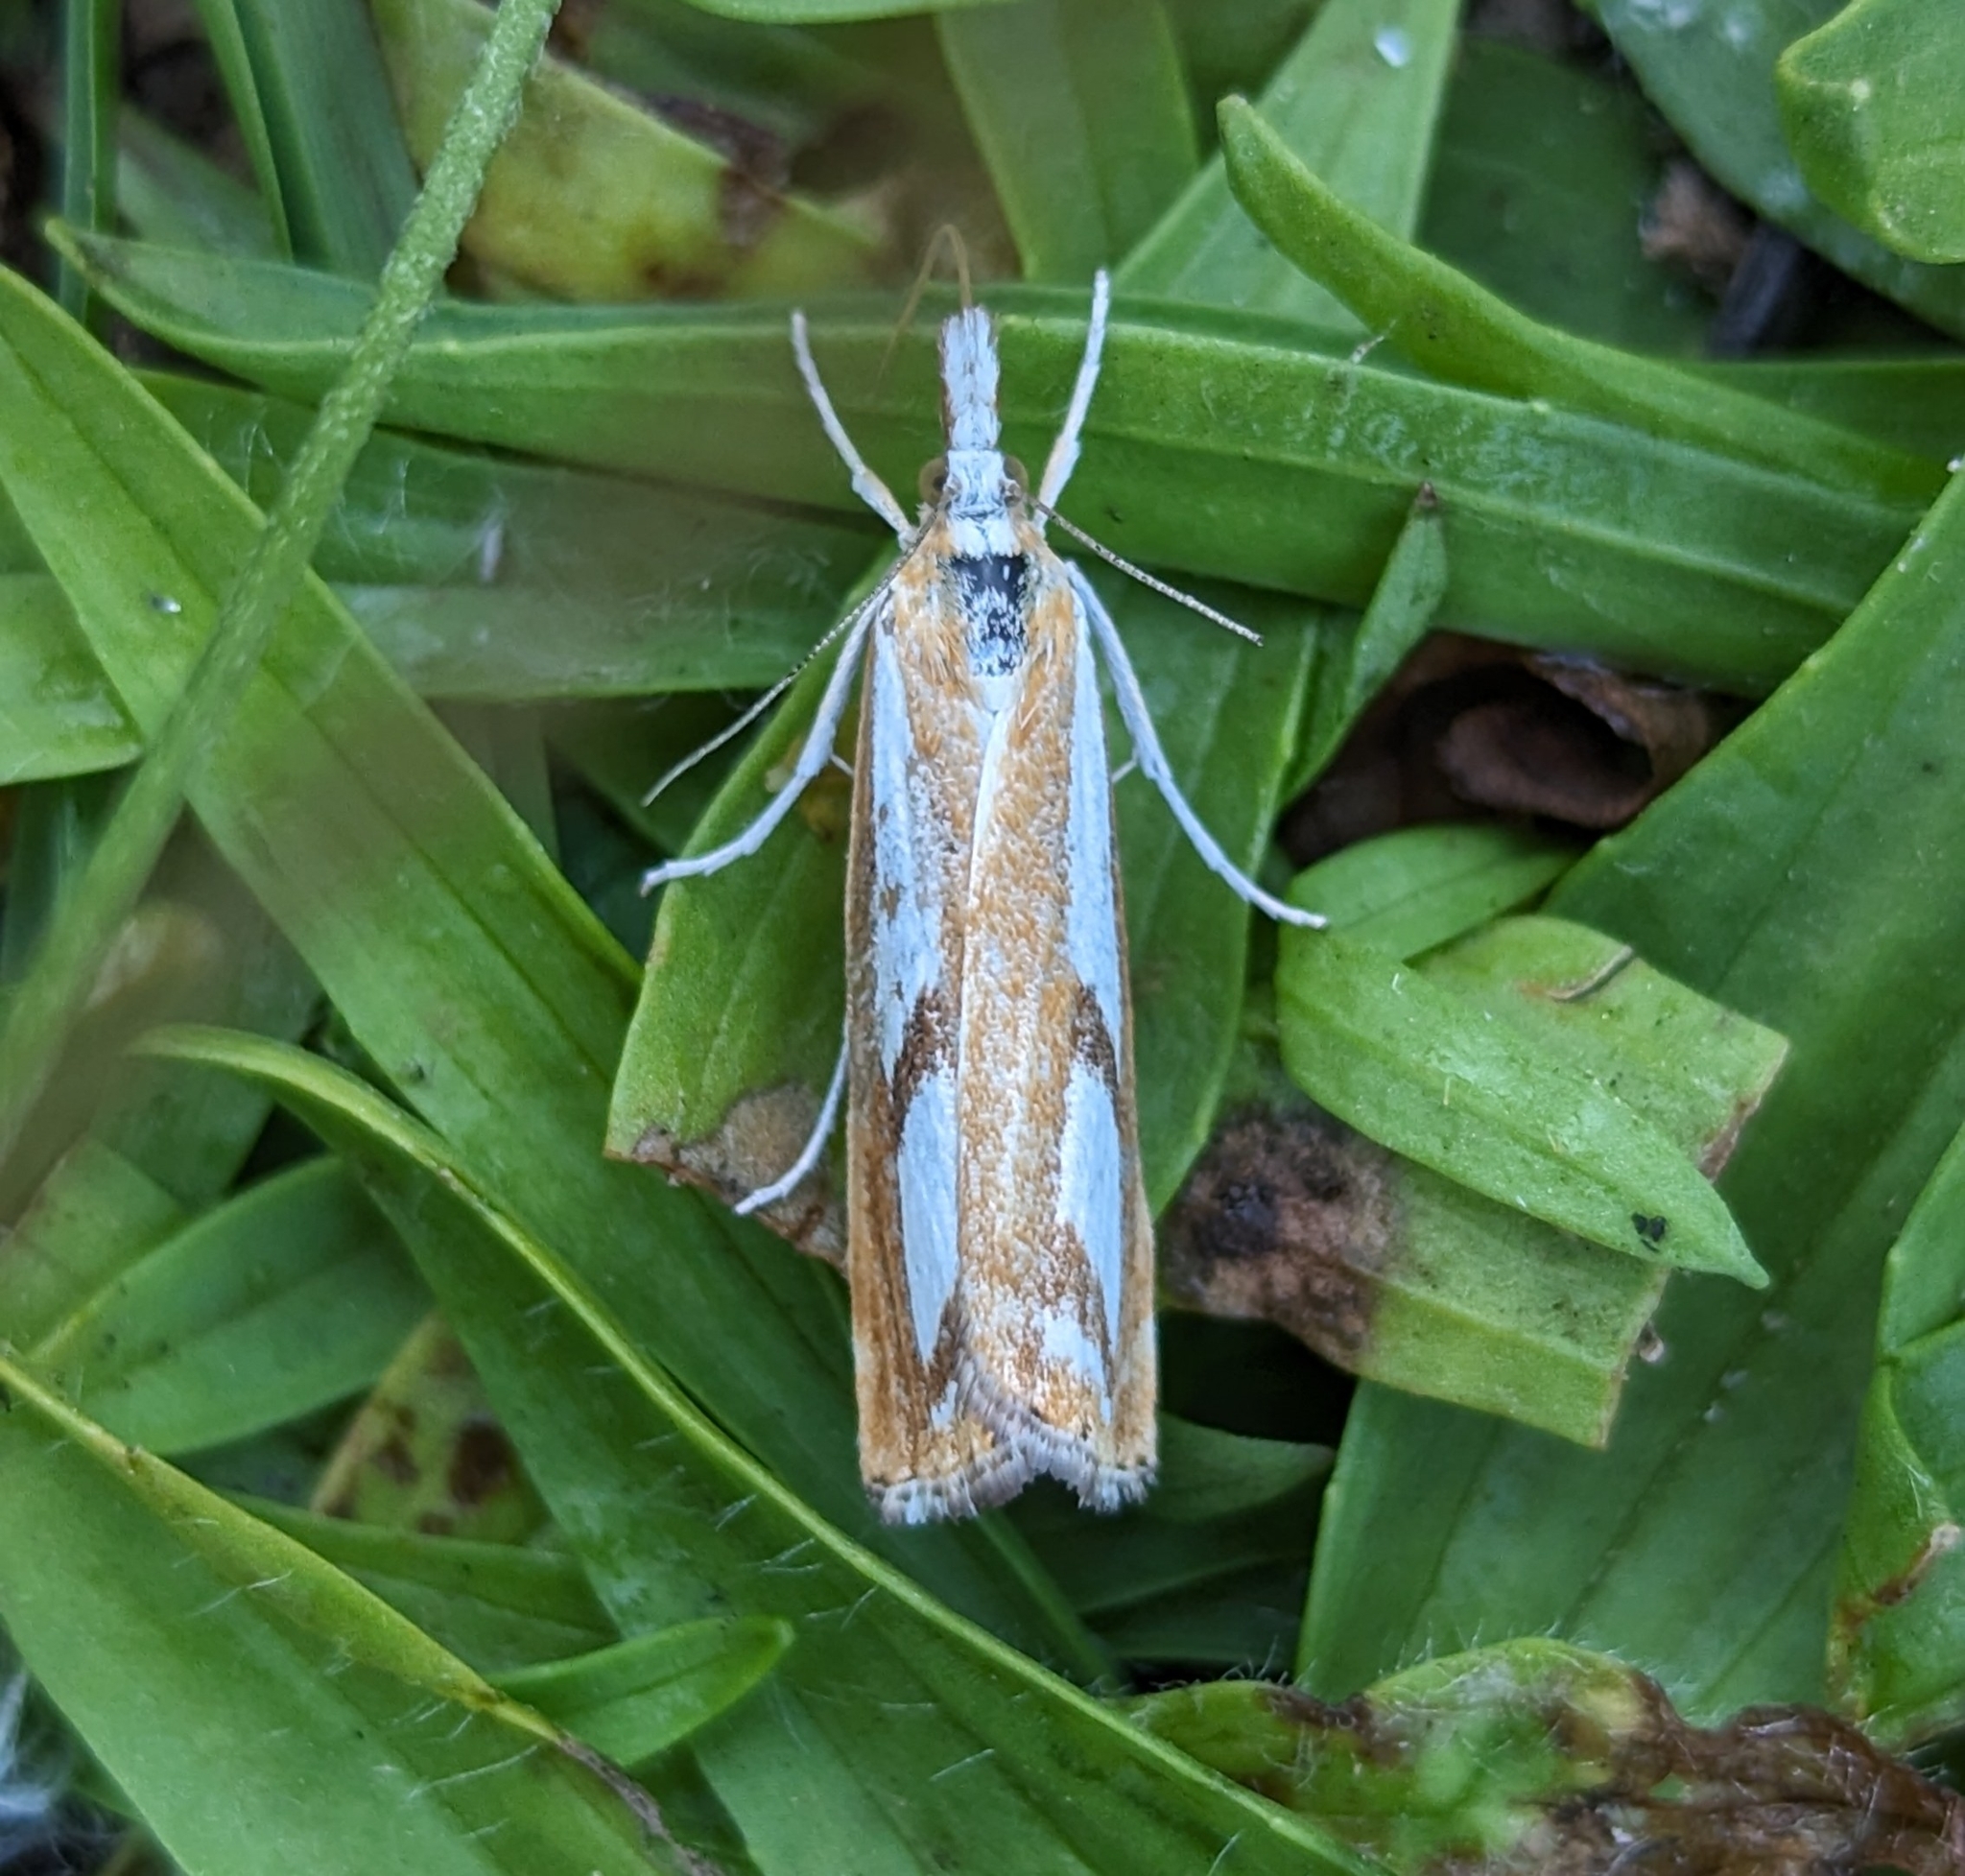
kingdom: Animalia
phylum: Arthropoda
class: Insecta
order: Lepidoptera
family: Crambidae
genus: Catoptria
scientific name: Catoptria latiradiellus
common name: Two-banded catoptria moth
